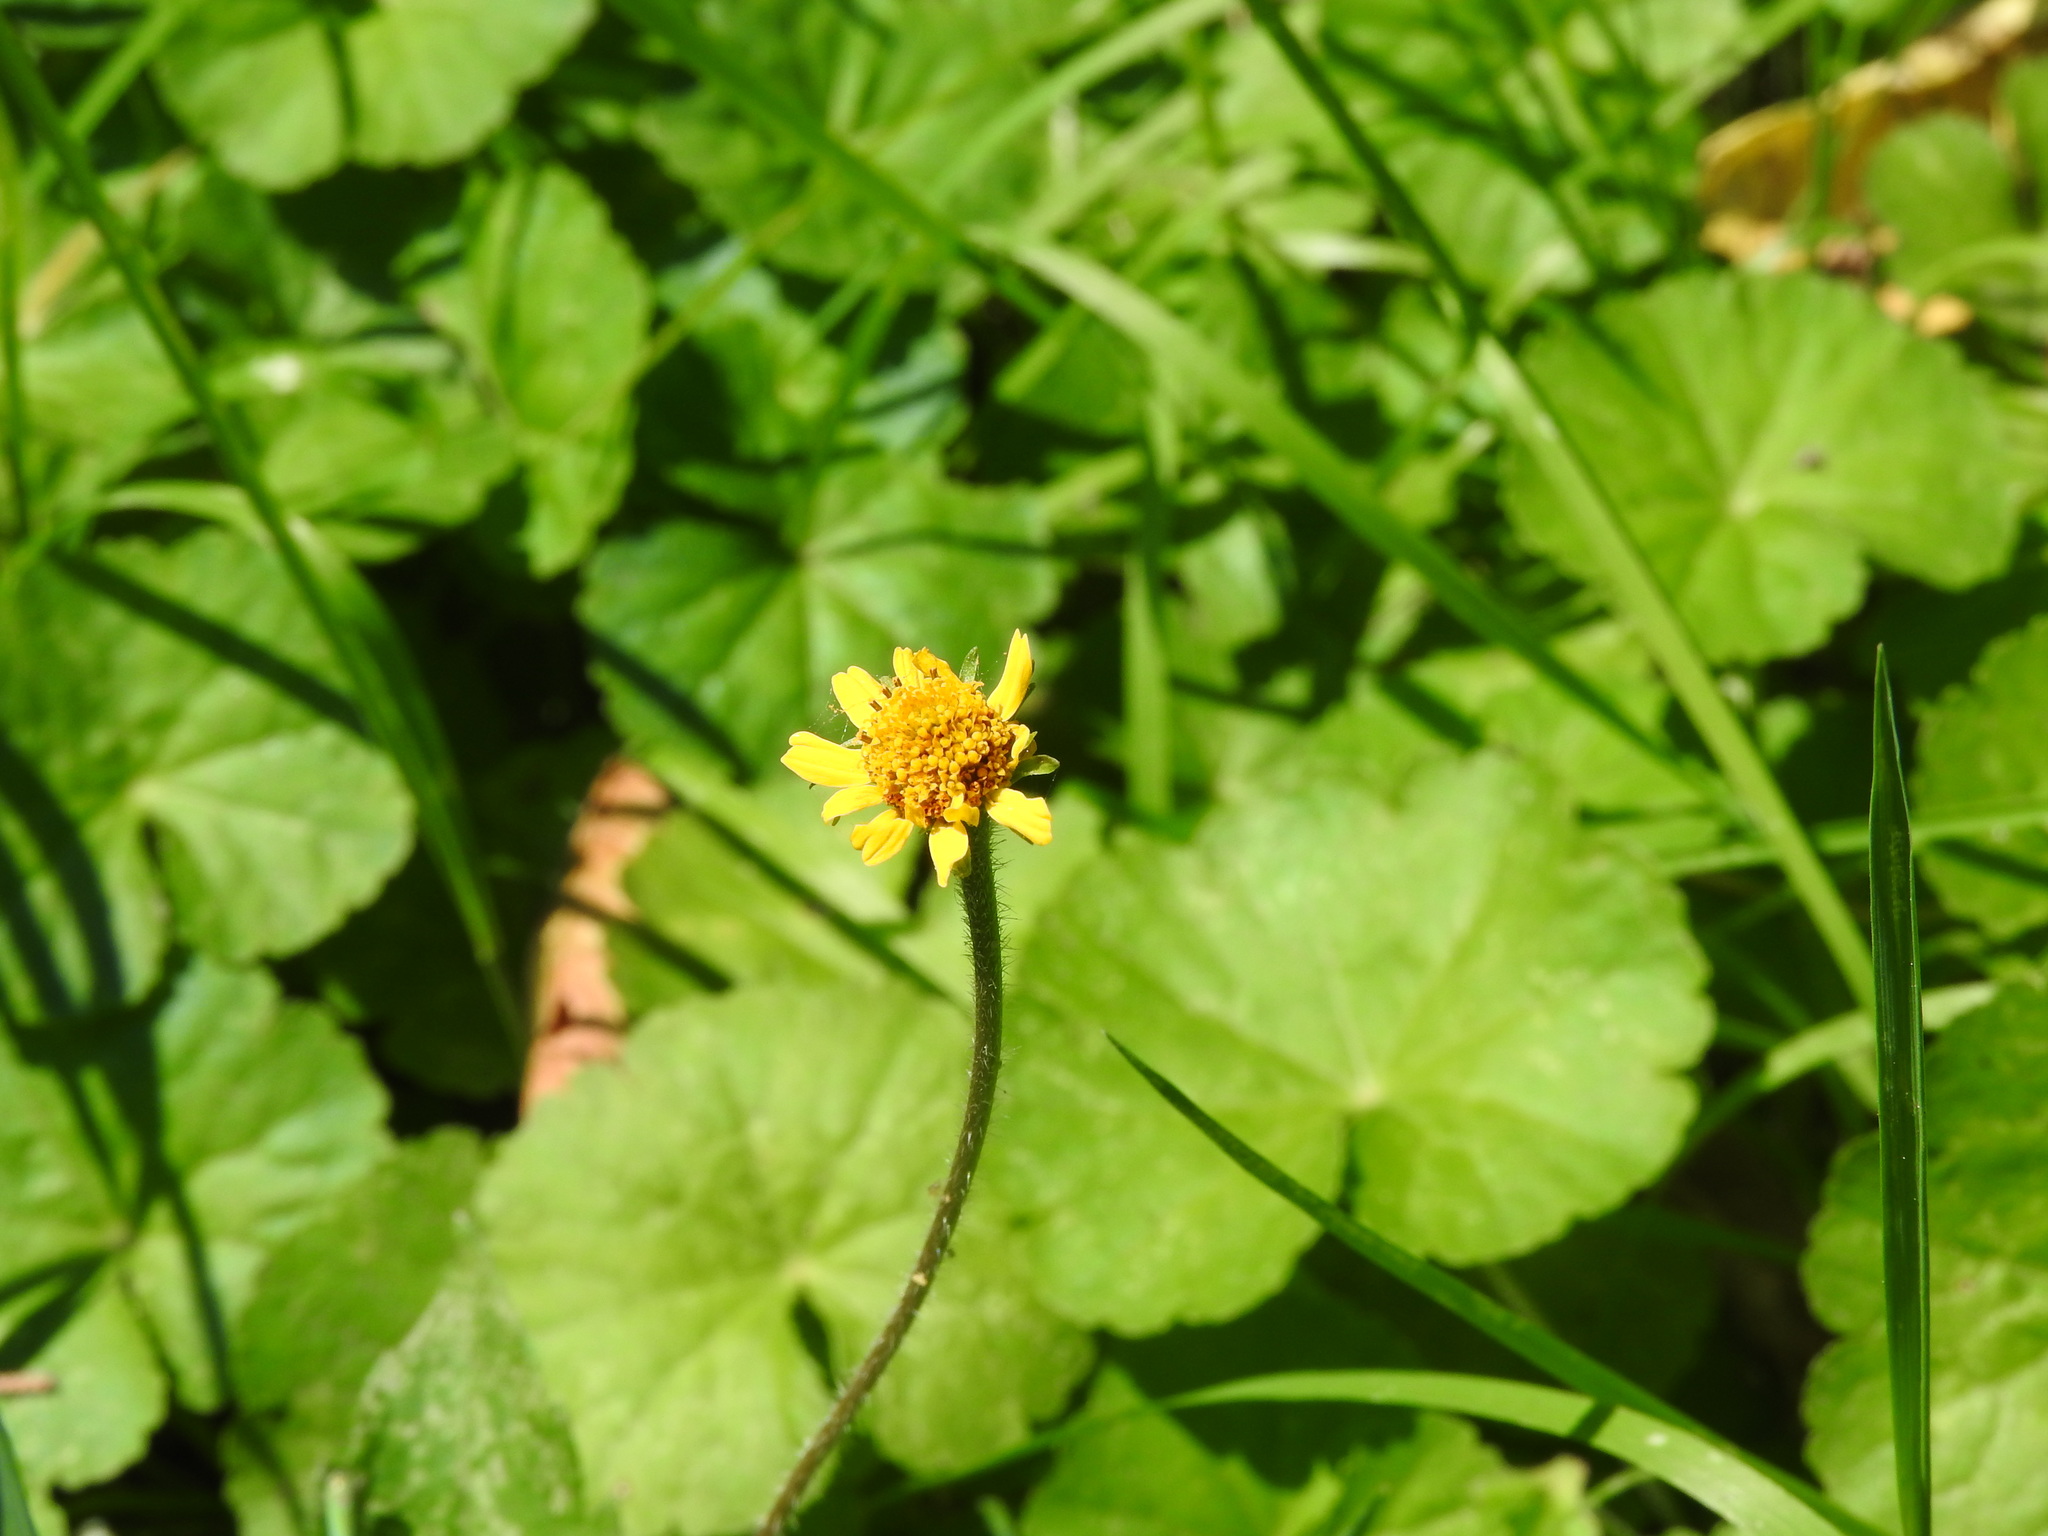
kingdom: Plantae
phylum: Tracheophyta
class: Magnoliopsida
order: Asterales
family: Asteraceae
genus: Acmella
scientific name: Acmella repens
